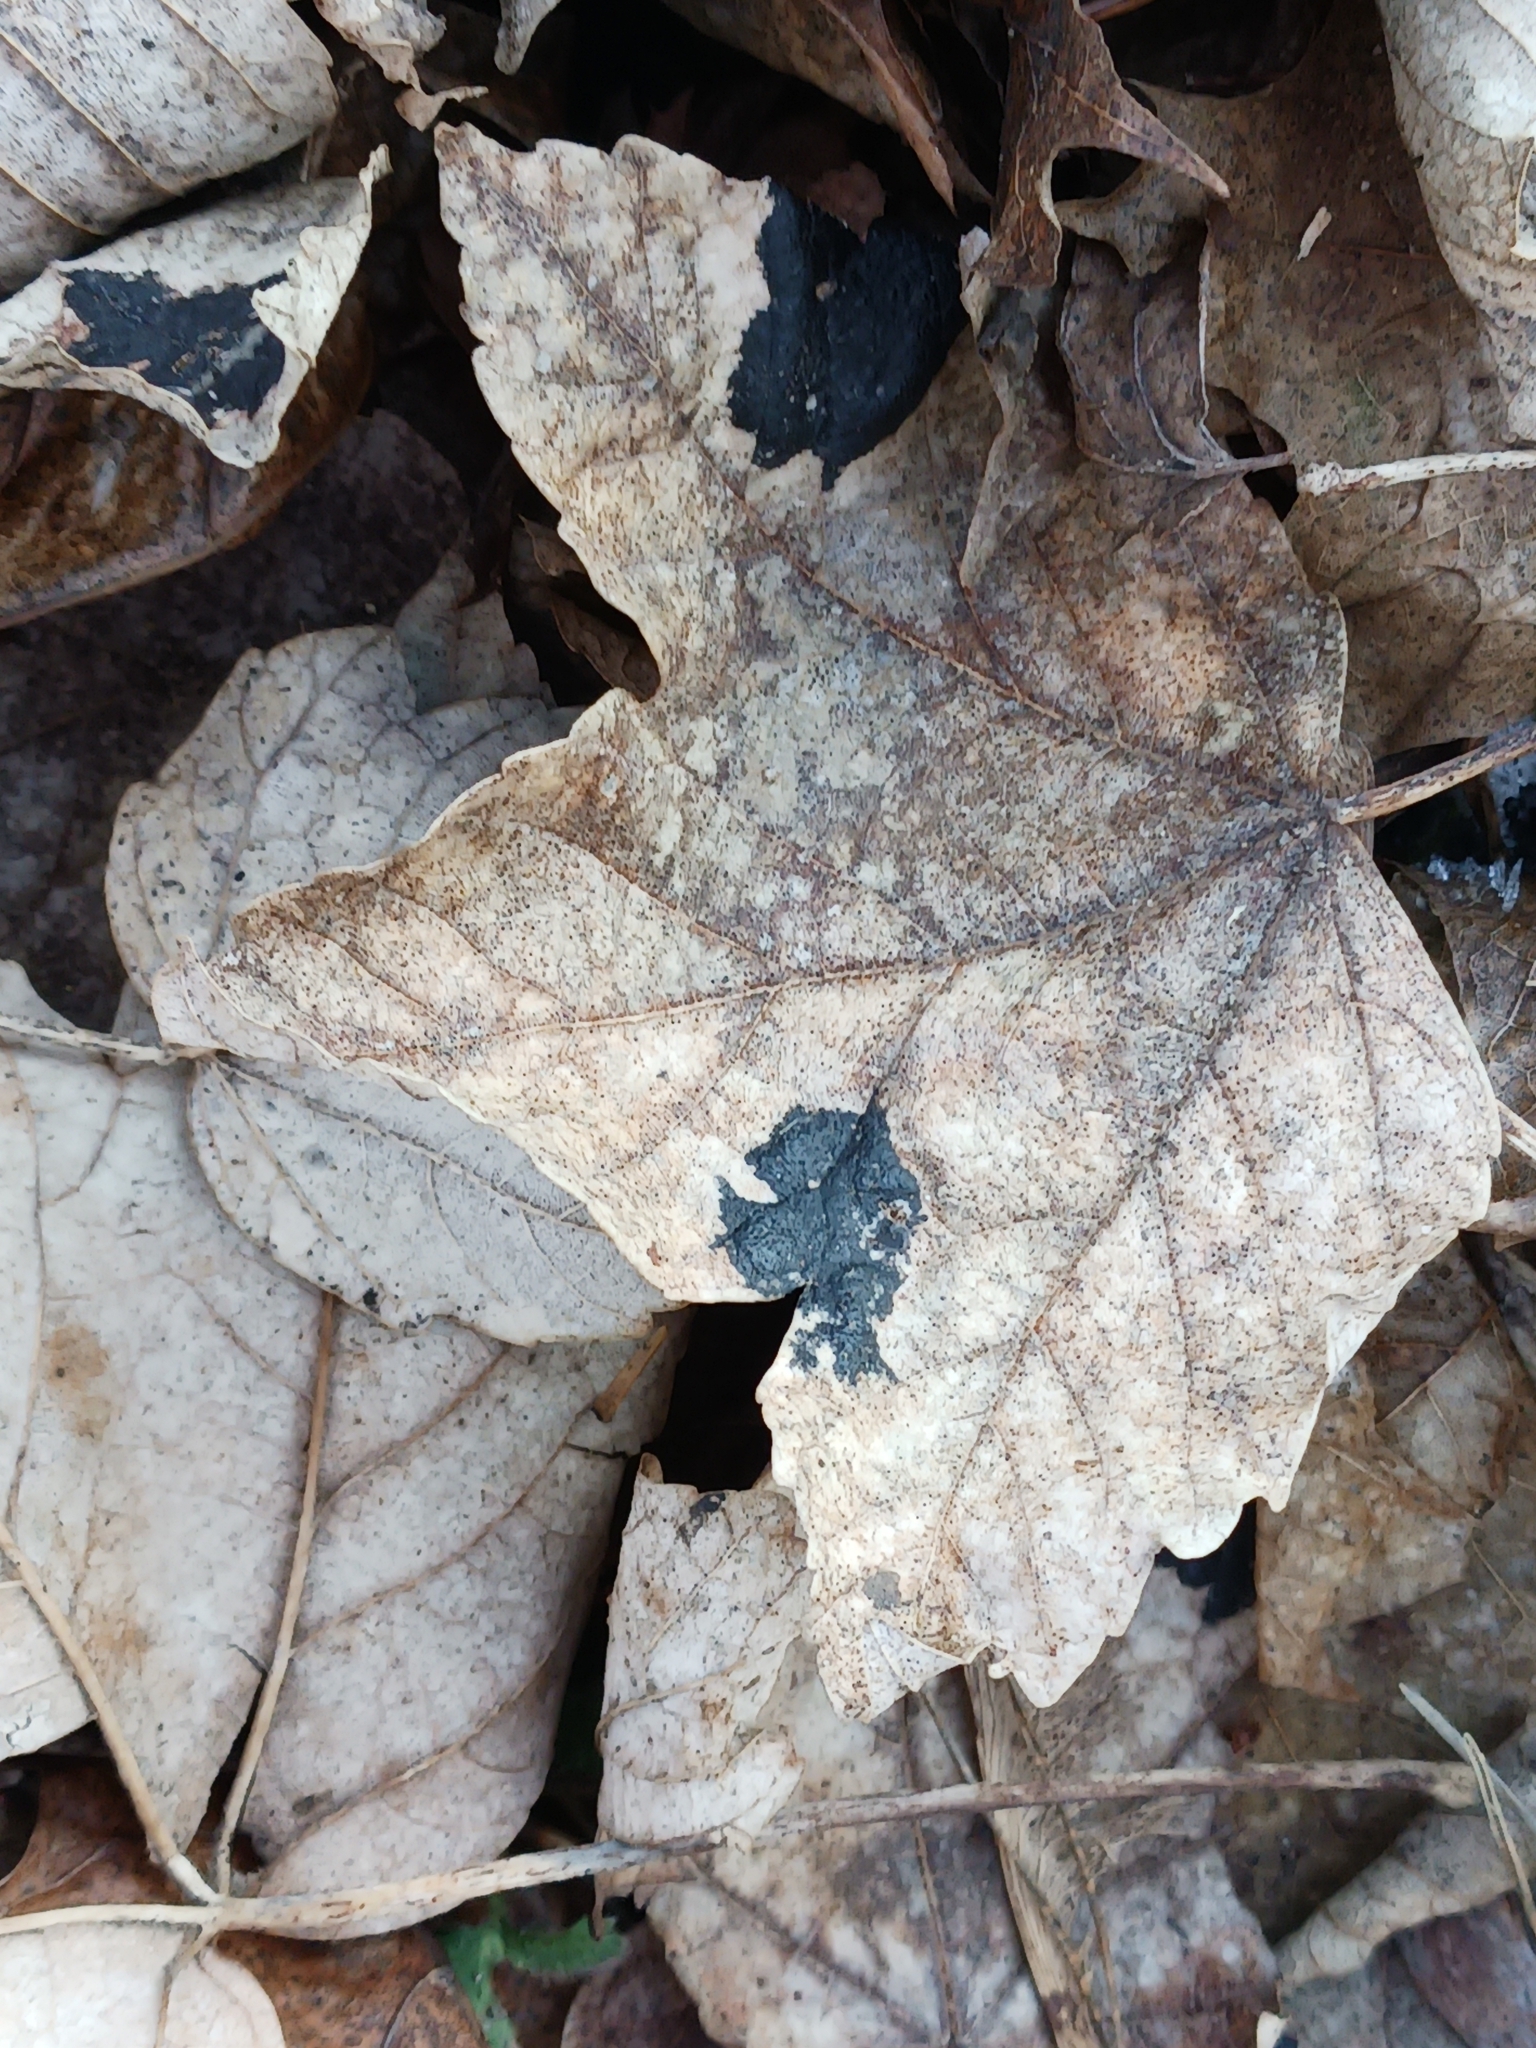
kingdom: Fungi
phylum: Ascomycota
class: Leotiomycetes
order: Rhytismatales
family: Rhytismataceae
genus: Rhytisma
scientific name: Rhytisma acerinum
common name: European tar spot
